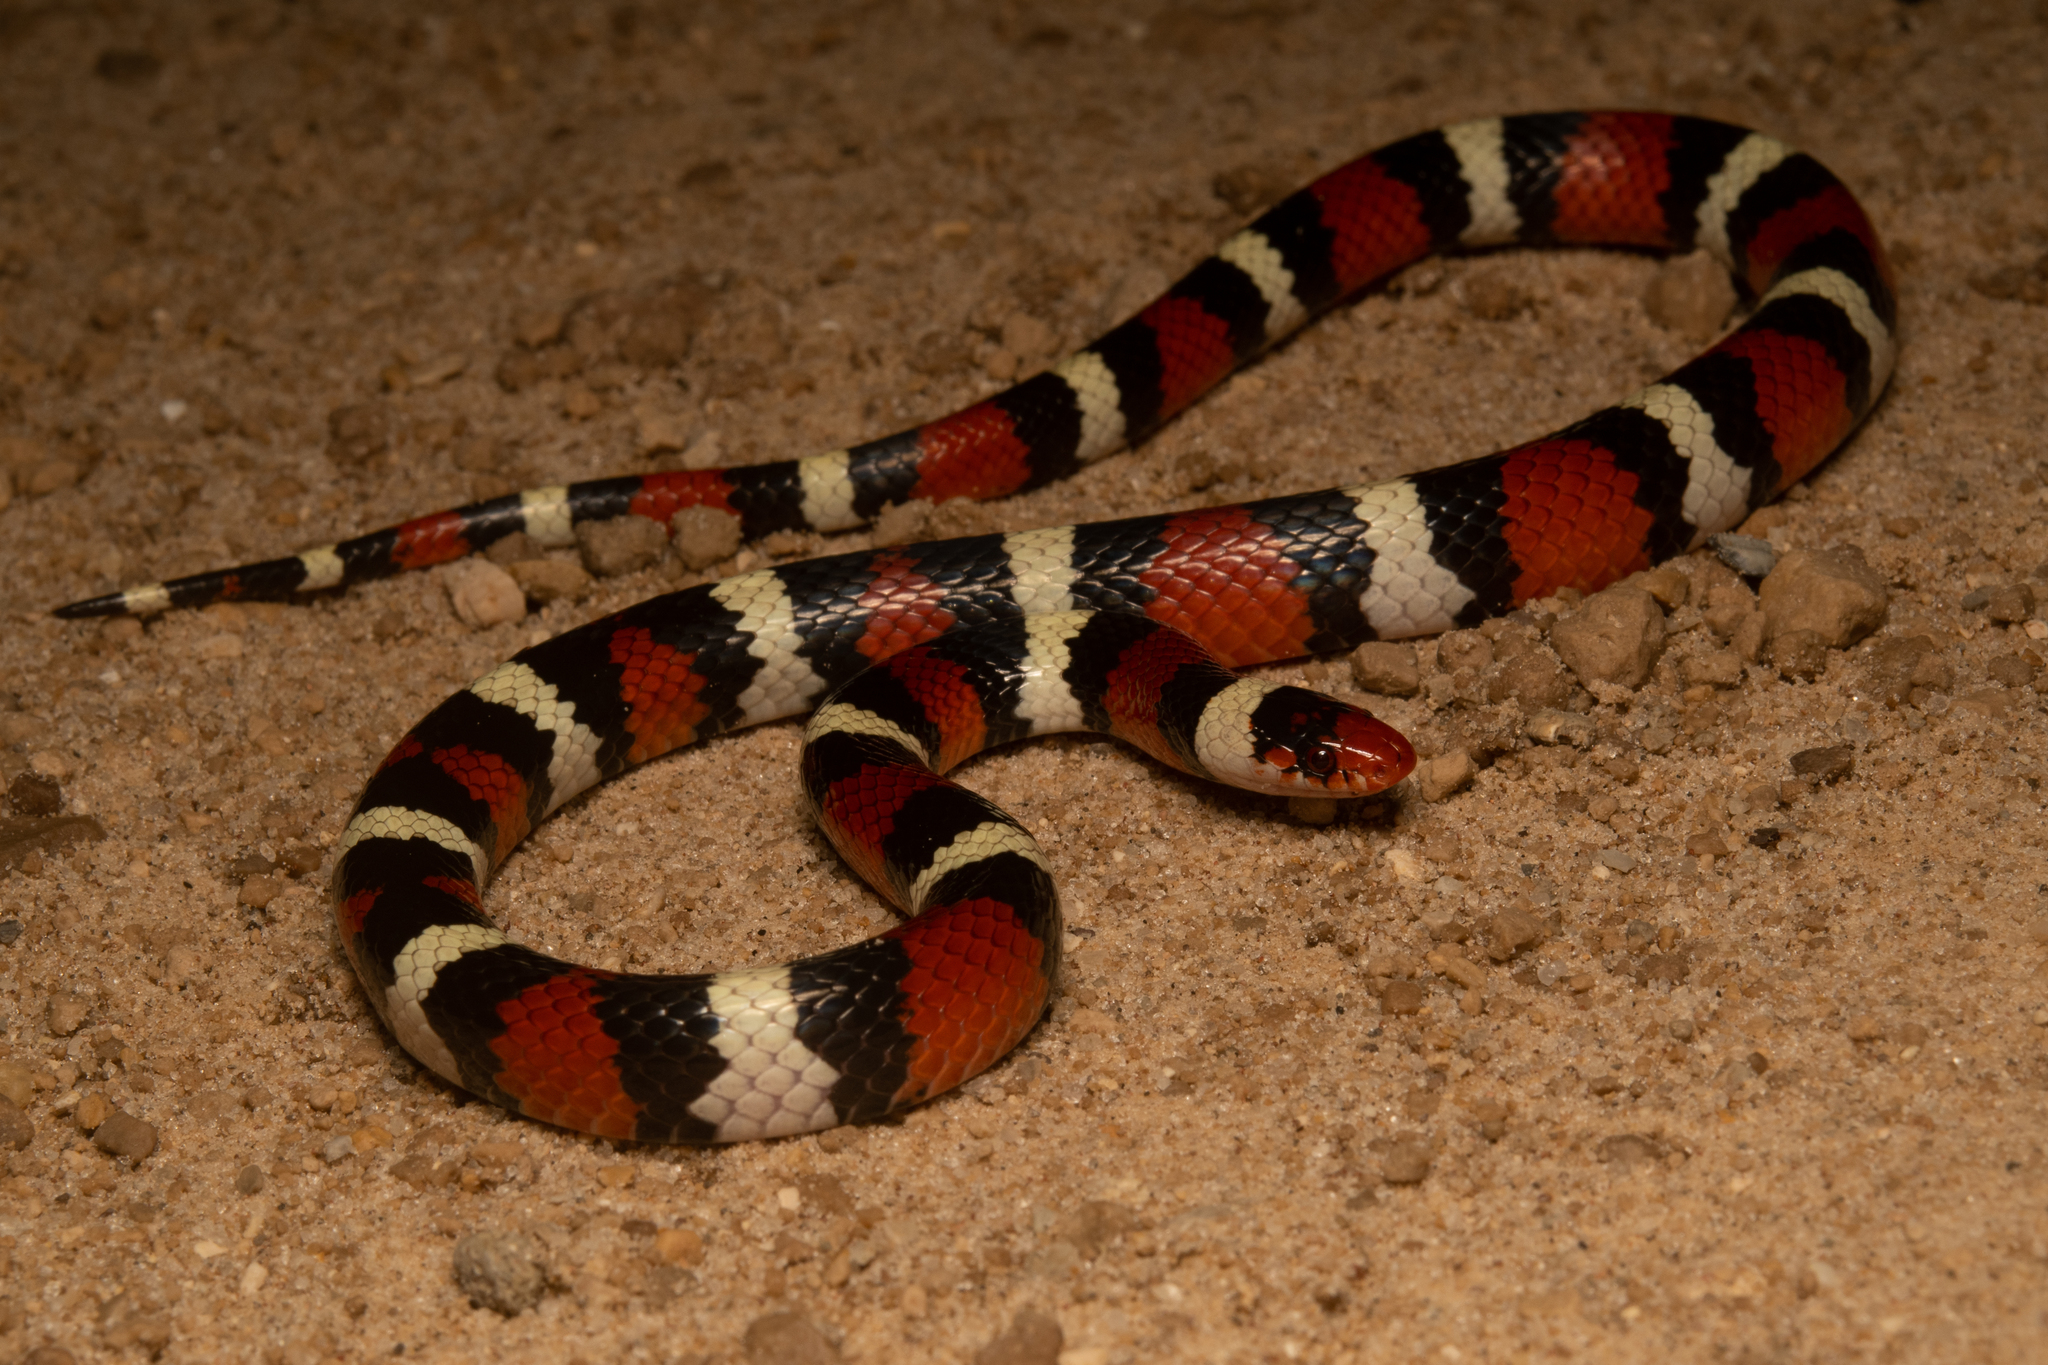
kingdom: Animalia
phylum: Chordata
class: Squamata
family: Colubridae
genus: Lampropeltis
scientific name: Lampropeltis elapsoides
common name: Scarlet kingsnake
